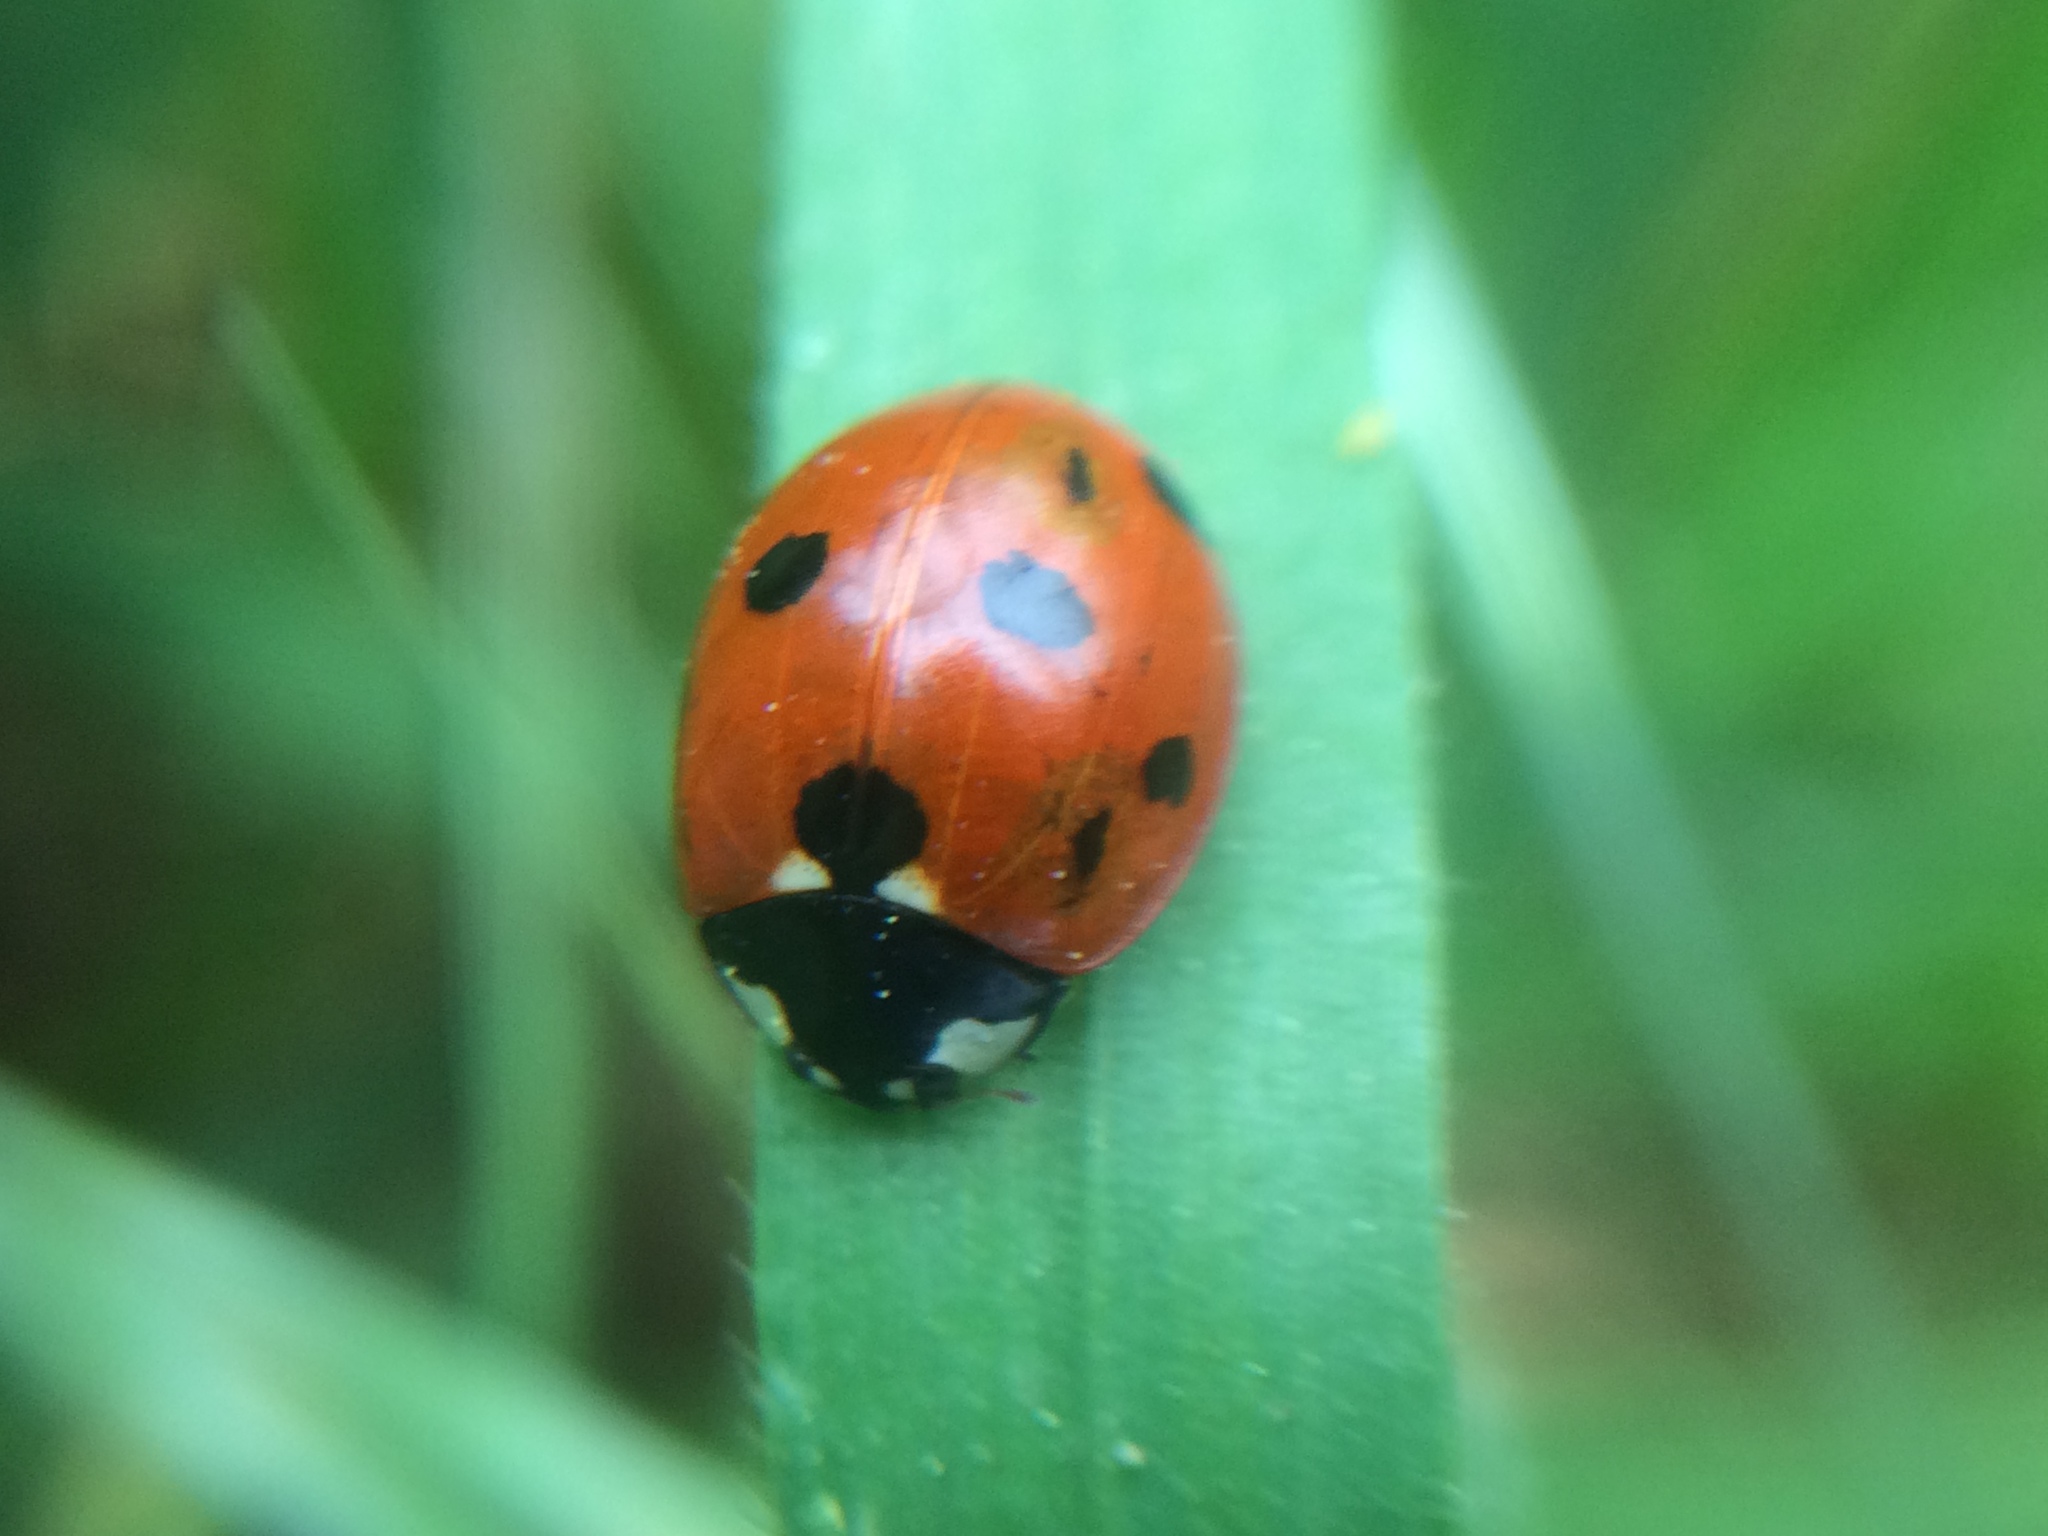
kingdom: Animalia
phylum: Arthropoda
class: Insecta
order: Coleoptera
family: Coccinellidae
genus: Coccinella
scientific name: Coccinella septempunctata
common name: Sevenspotted lady beetle
